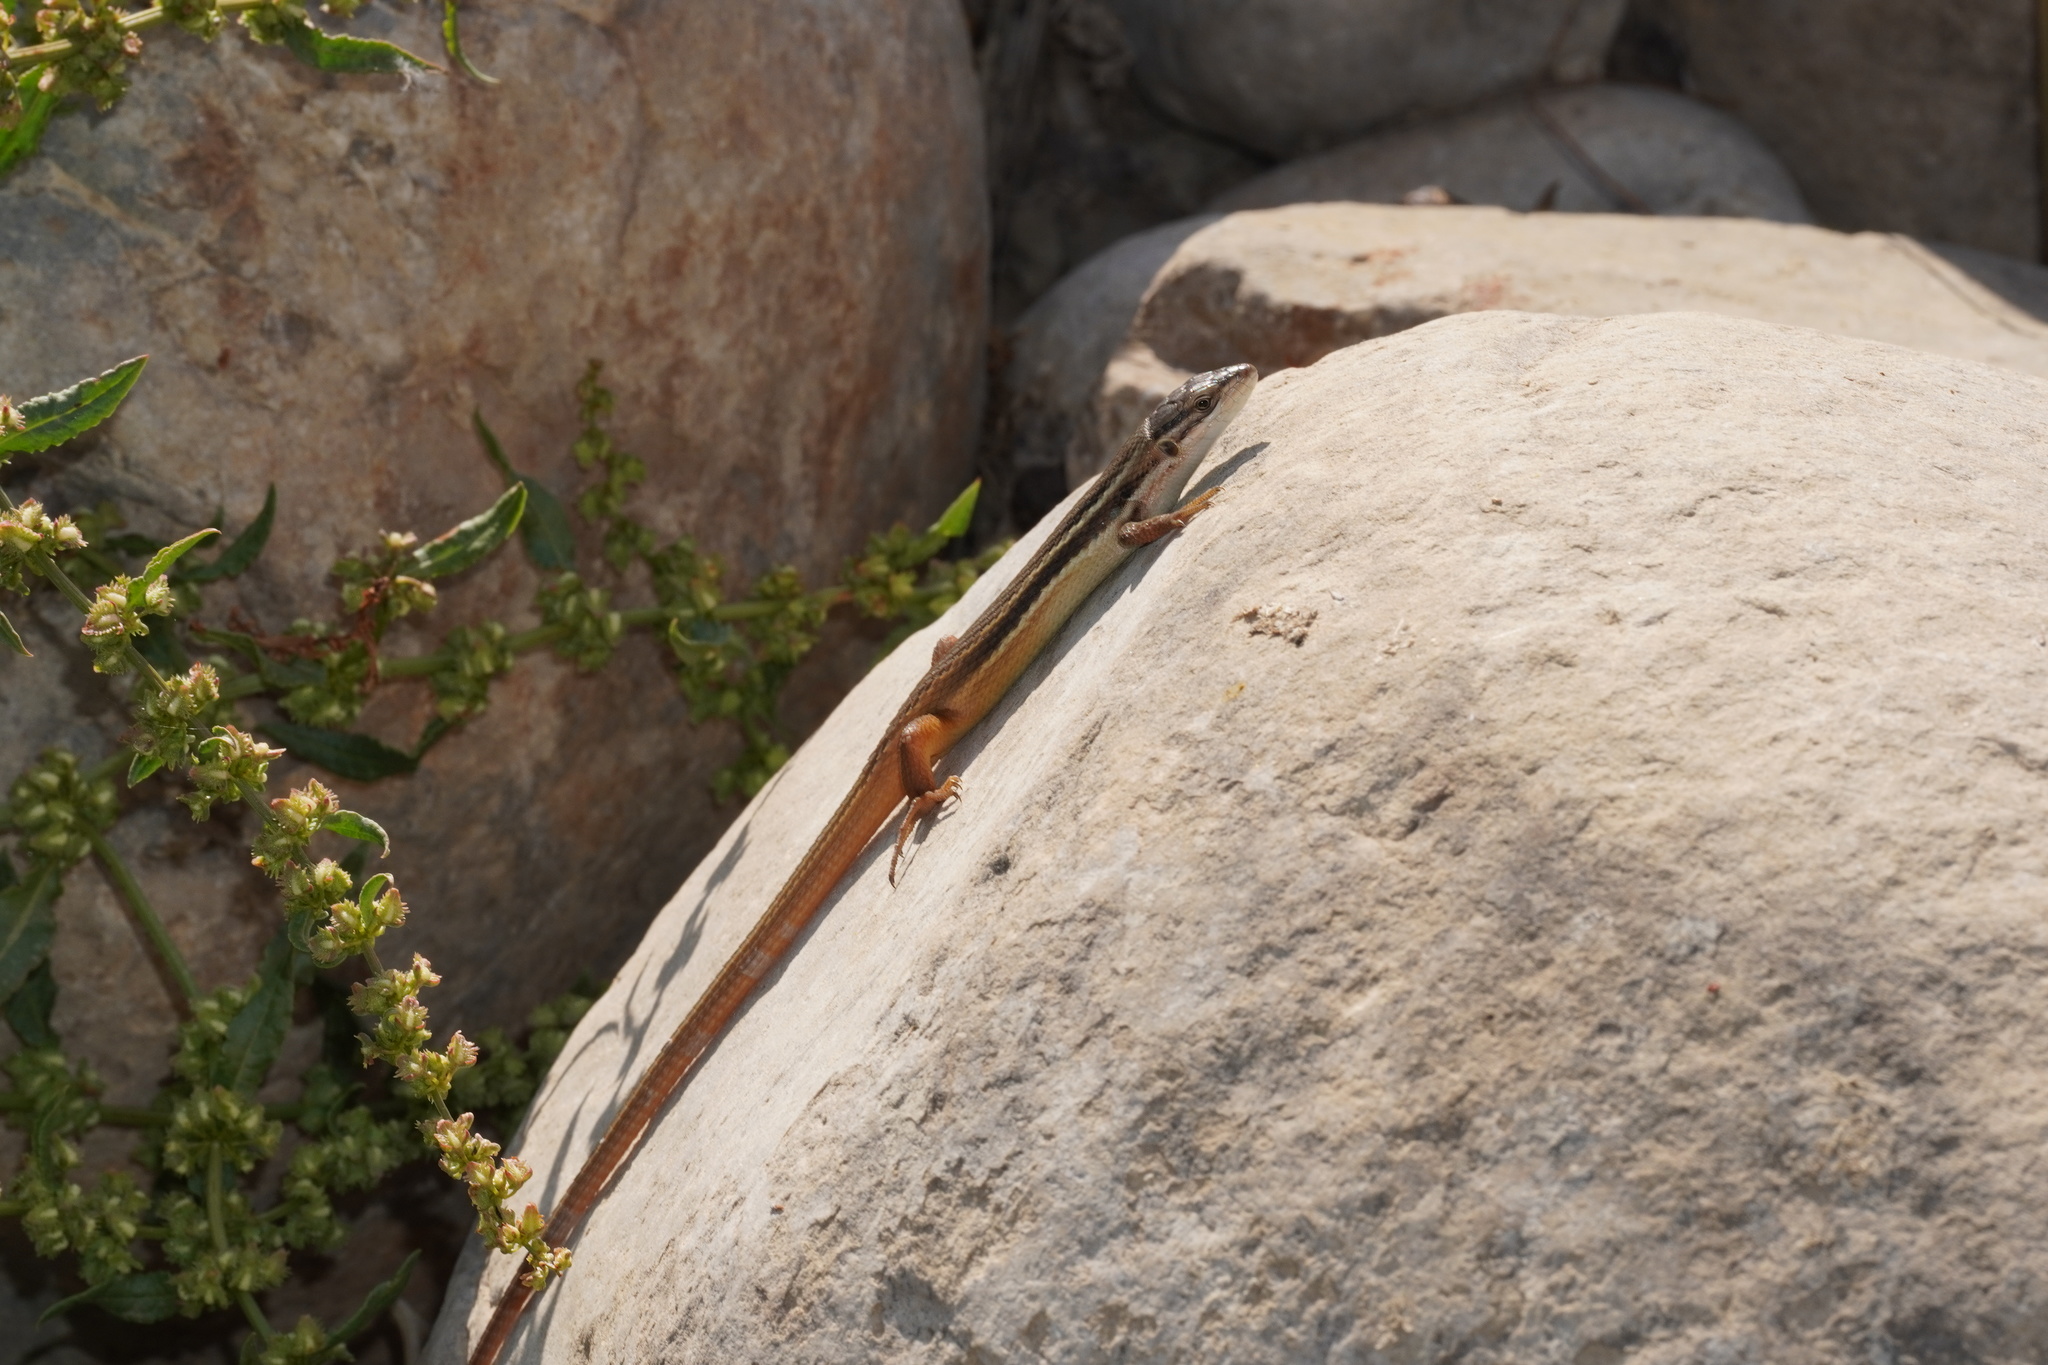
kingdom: Animalia
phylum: Chordata
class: Squamata
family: Lacertidae
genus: Psammodromus
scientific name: Psammodromus algirus
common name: Algerian psammodromus
